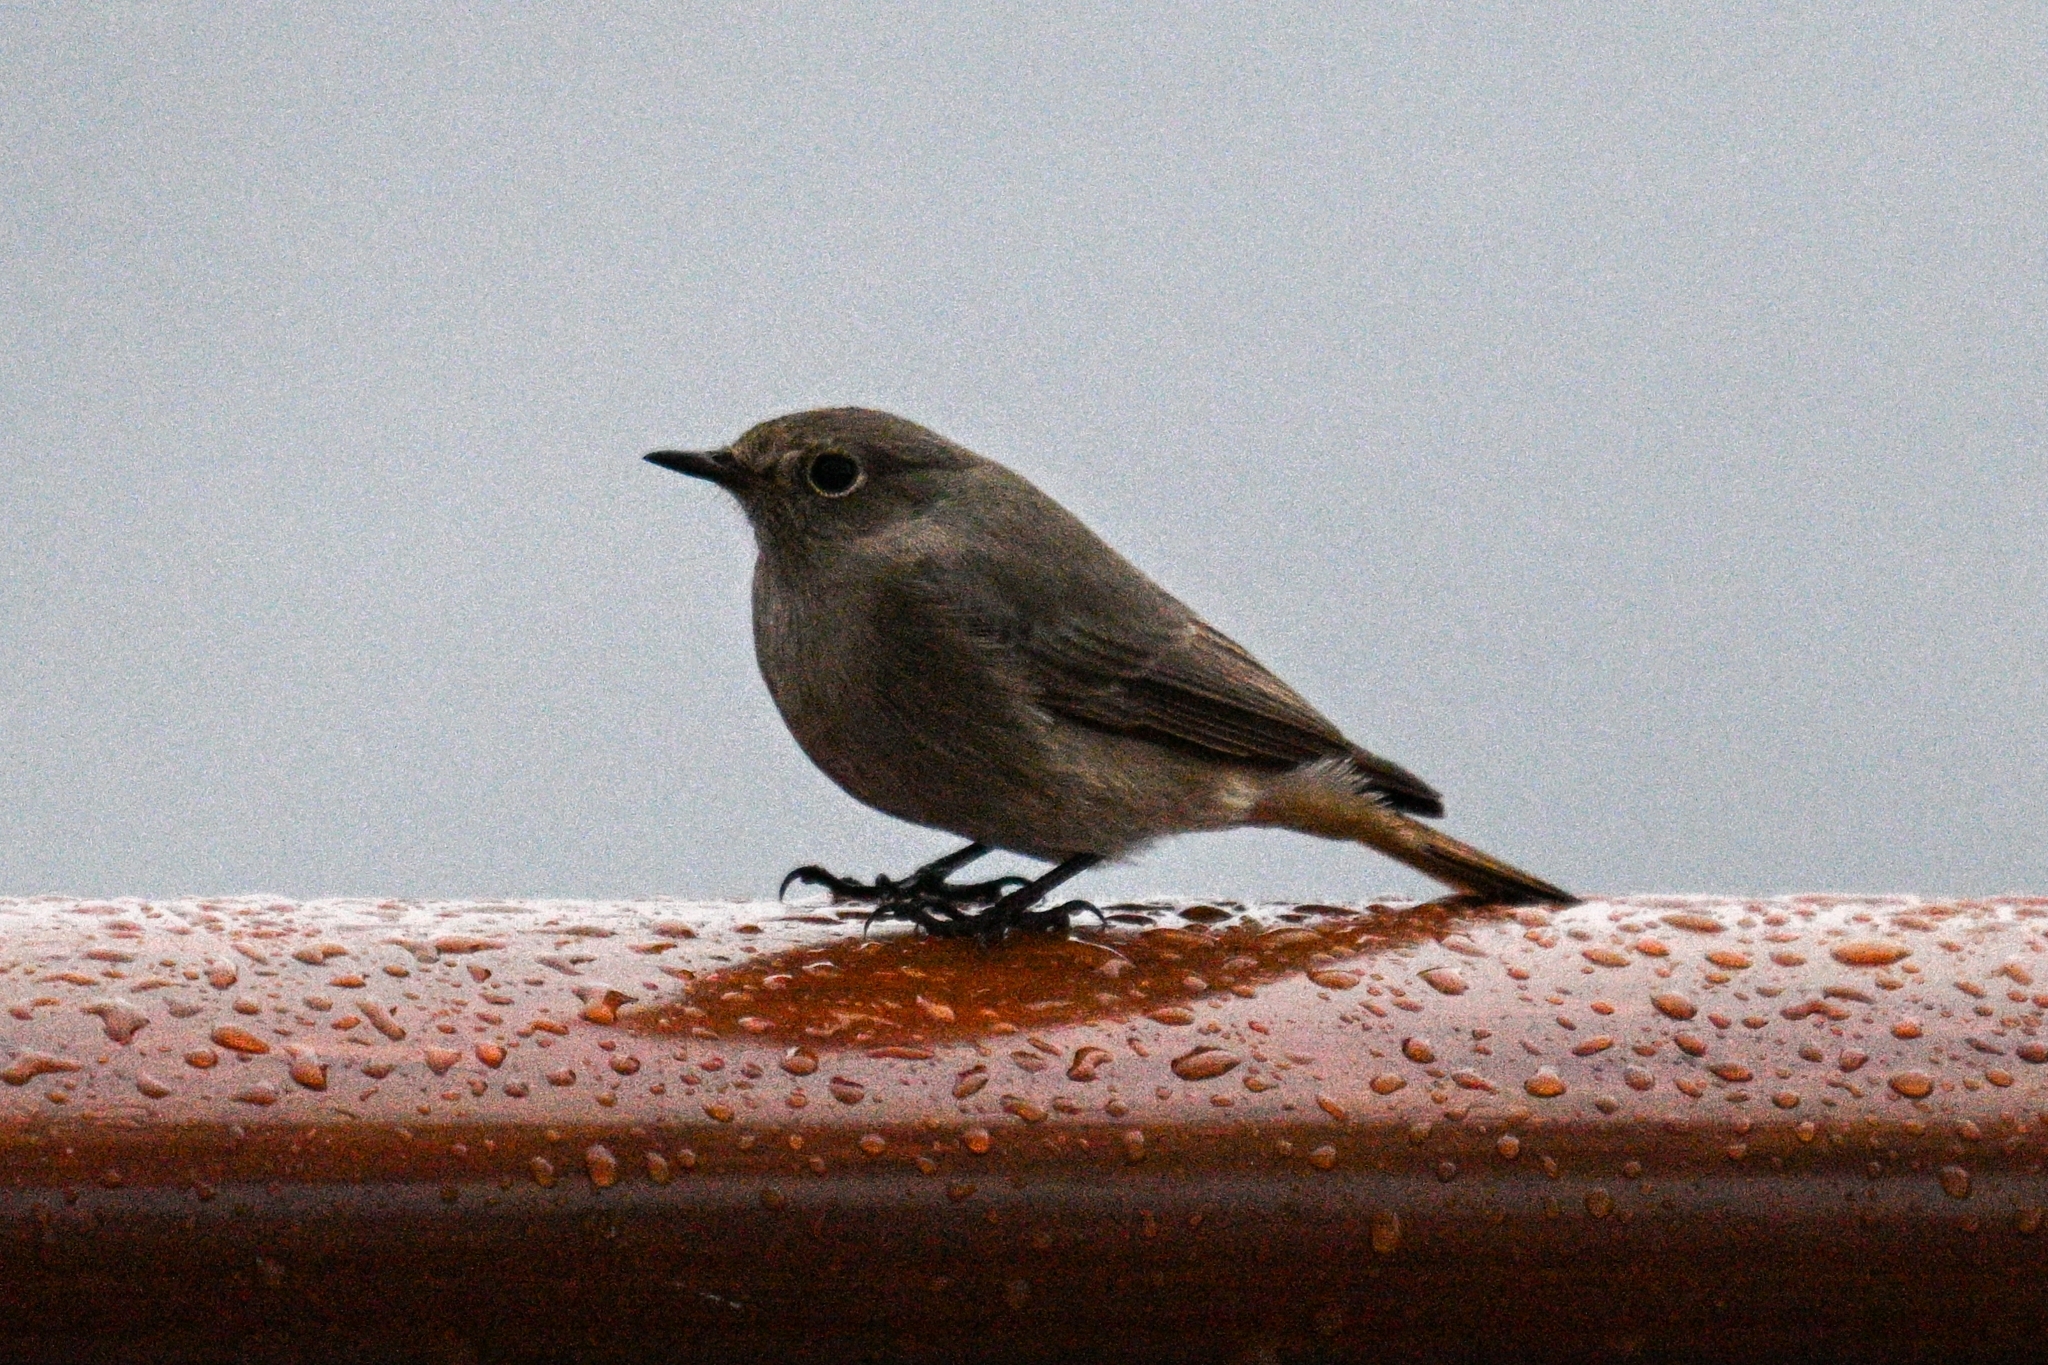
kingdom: Animalia
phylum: Chordata
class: Aves
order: Passeriformes
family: Muscicapidae
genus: Phoenicurus
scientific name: Phoenicurus ochruros
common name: Black redstart
